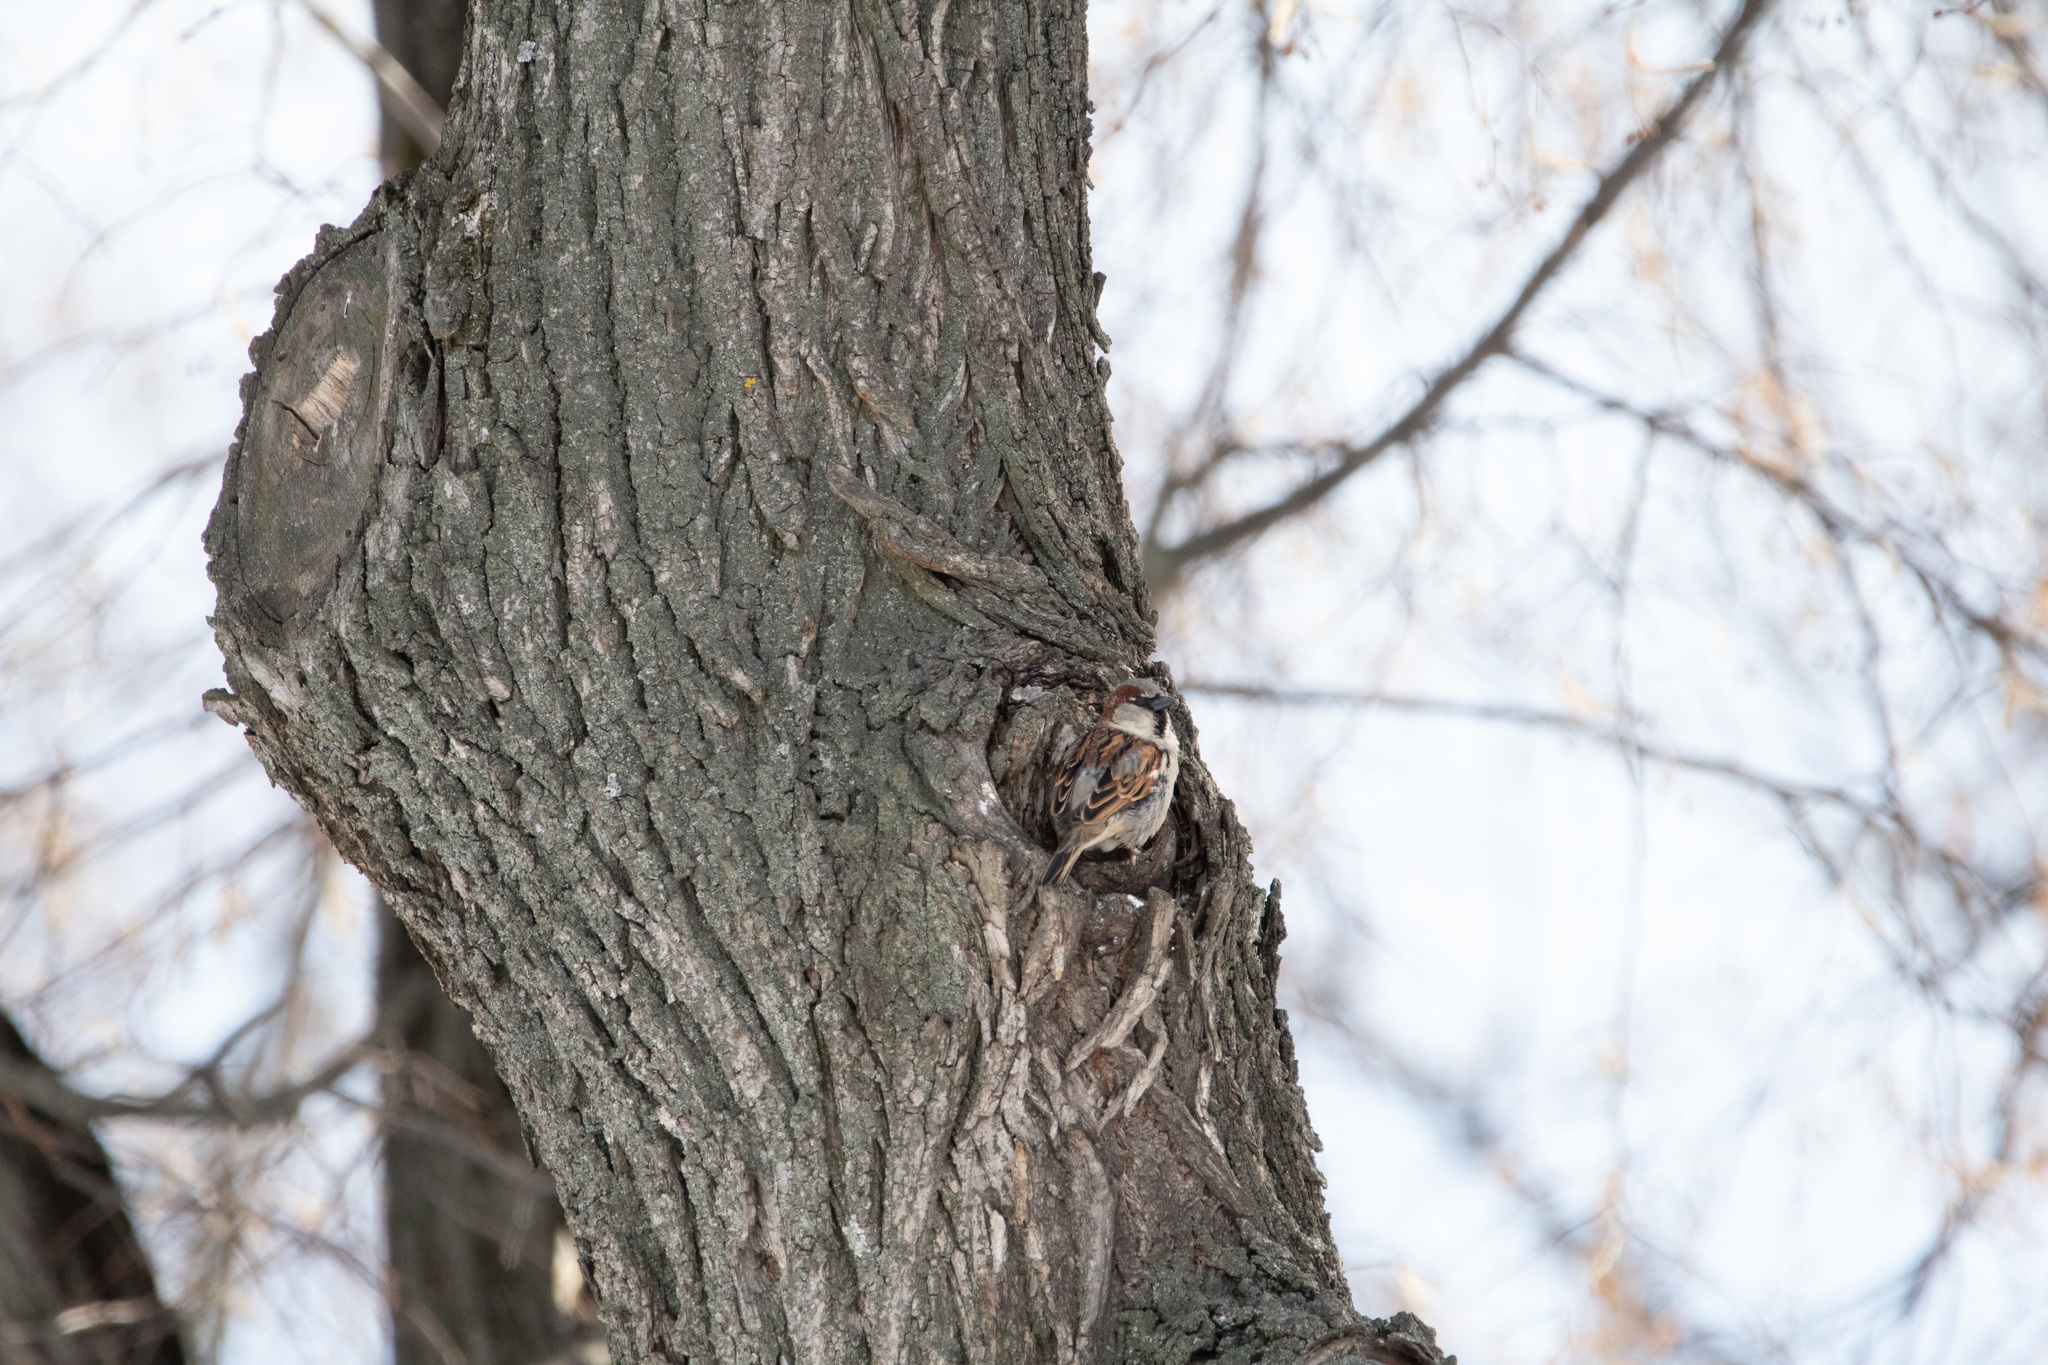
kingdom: Animalia
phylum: Chordata
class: Aves
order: Passeriformes
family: Passeridae
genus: Passer
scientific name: Passer domesticus
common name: House sparrow
